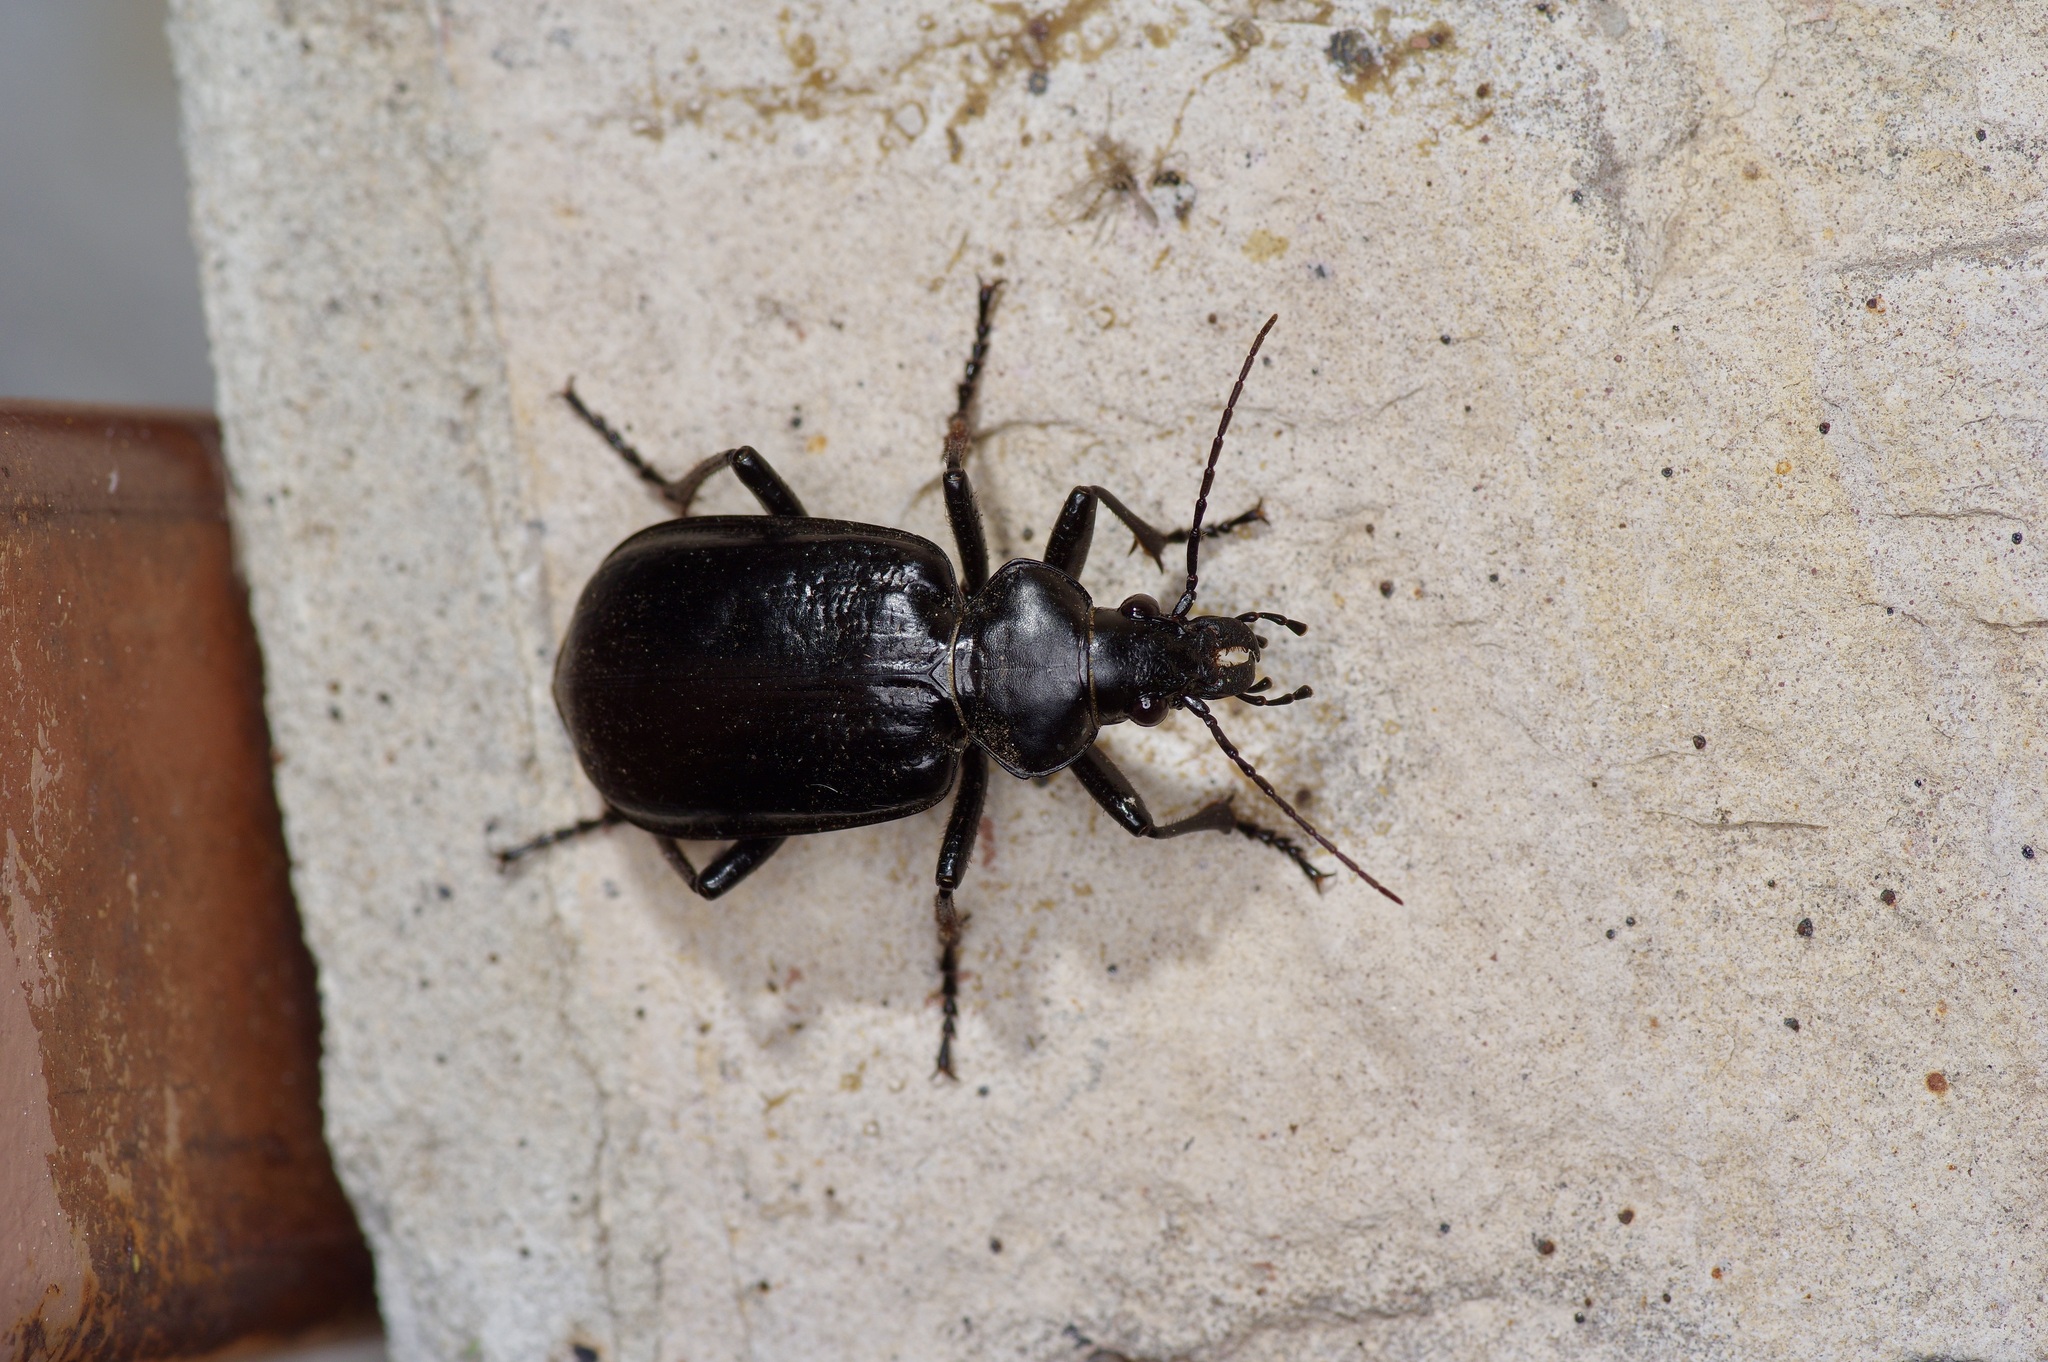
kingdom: Animalia
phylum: Arthropoda
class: Insecta
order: Coleoptera
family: Carabidae
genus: Calosoma
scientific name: Calosoma marginale
